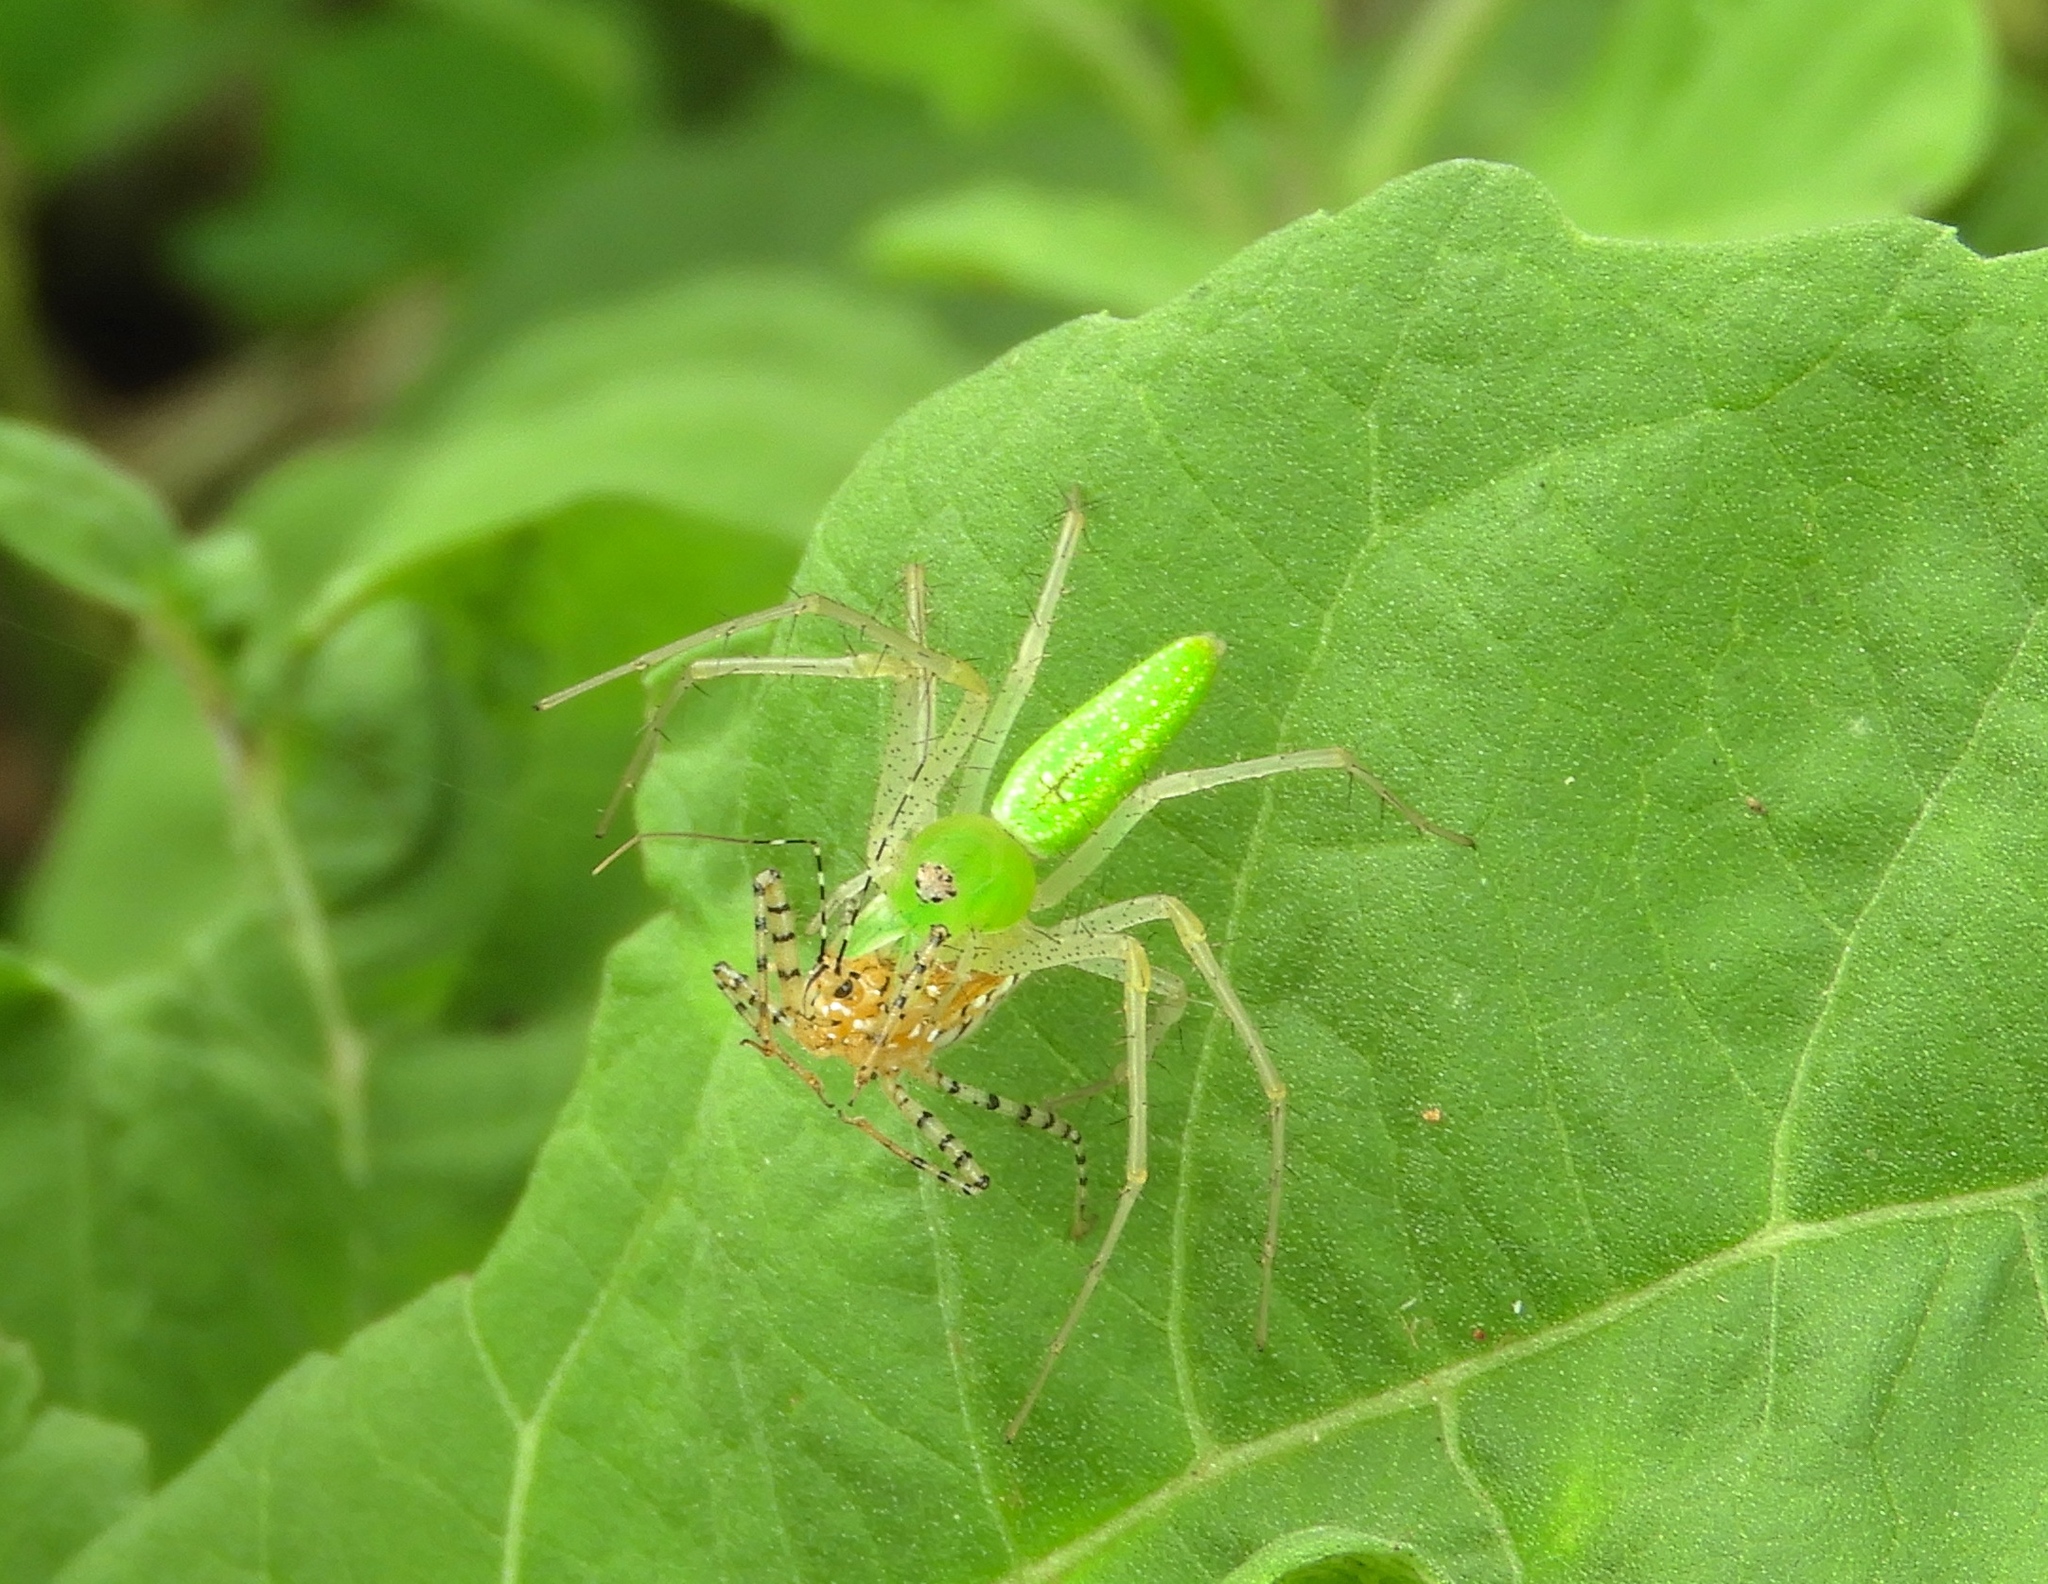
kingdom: Animalia
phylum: Arthropoda
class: Arachnida
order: Araneae
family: Oxyopidae
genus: Peucetia
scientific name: Peucetia
